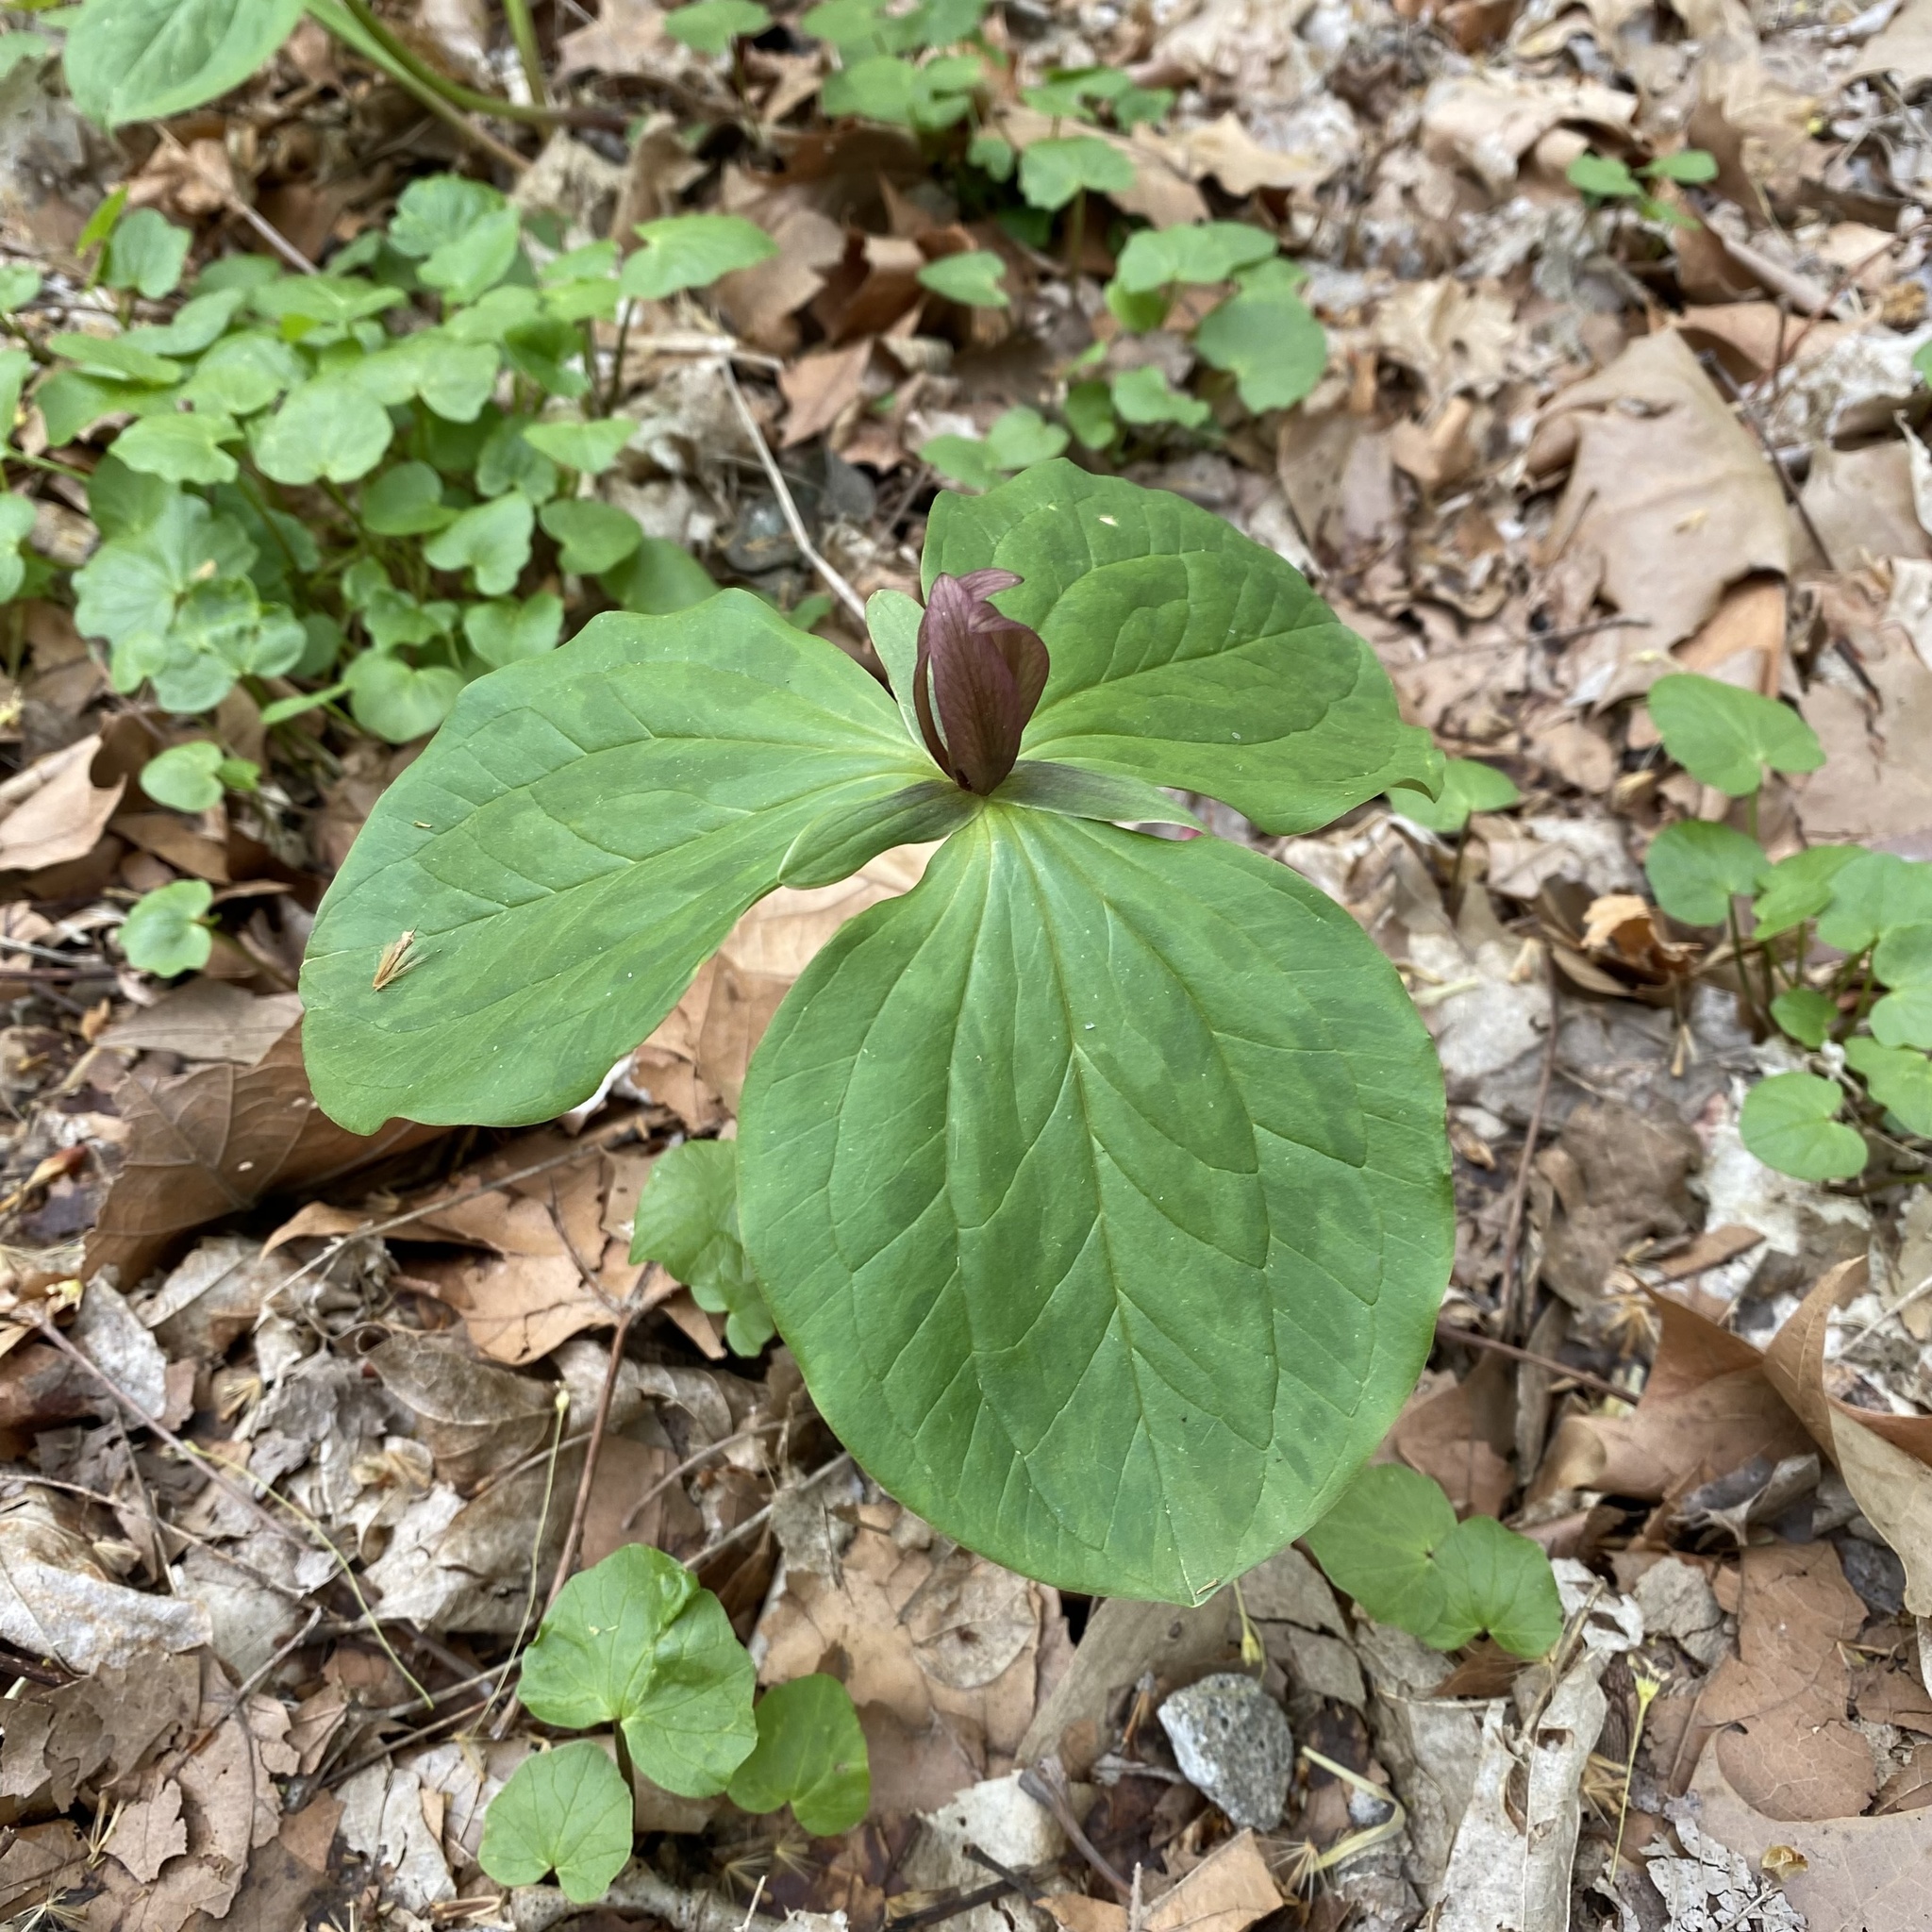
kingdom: Plantae
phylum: Tracheophyta
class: Liliopsida
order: Liliales
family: Melanthiaceae
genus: Trillium
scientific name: Trillium sessile
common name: Sessile trillium
